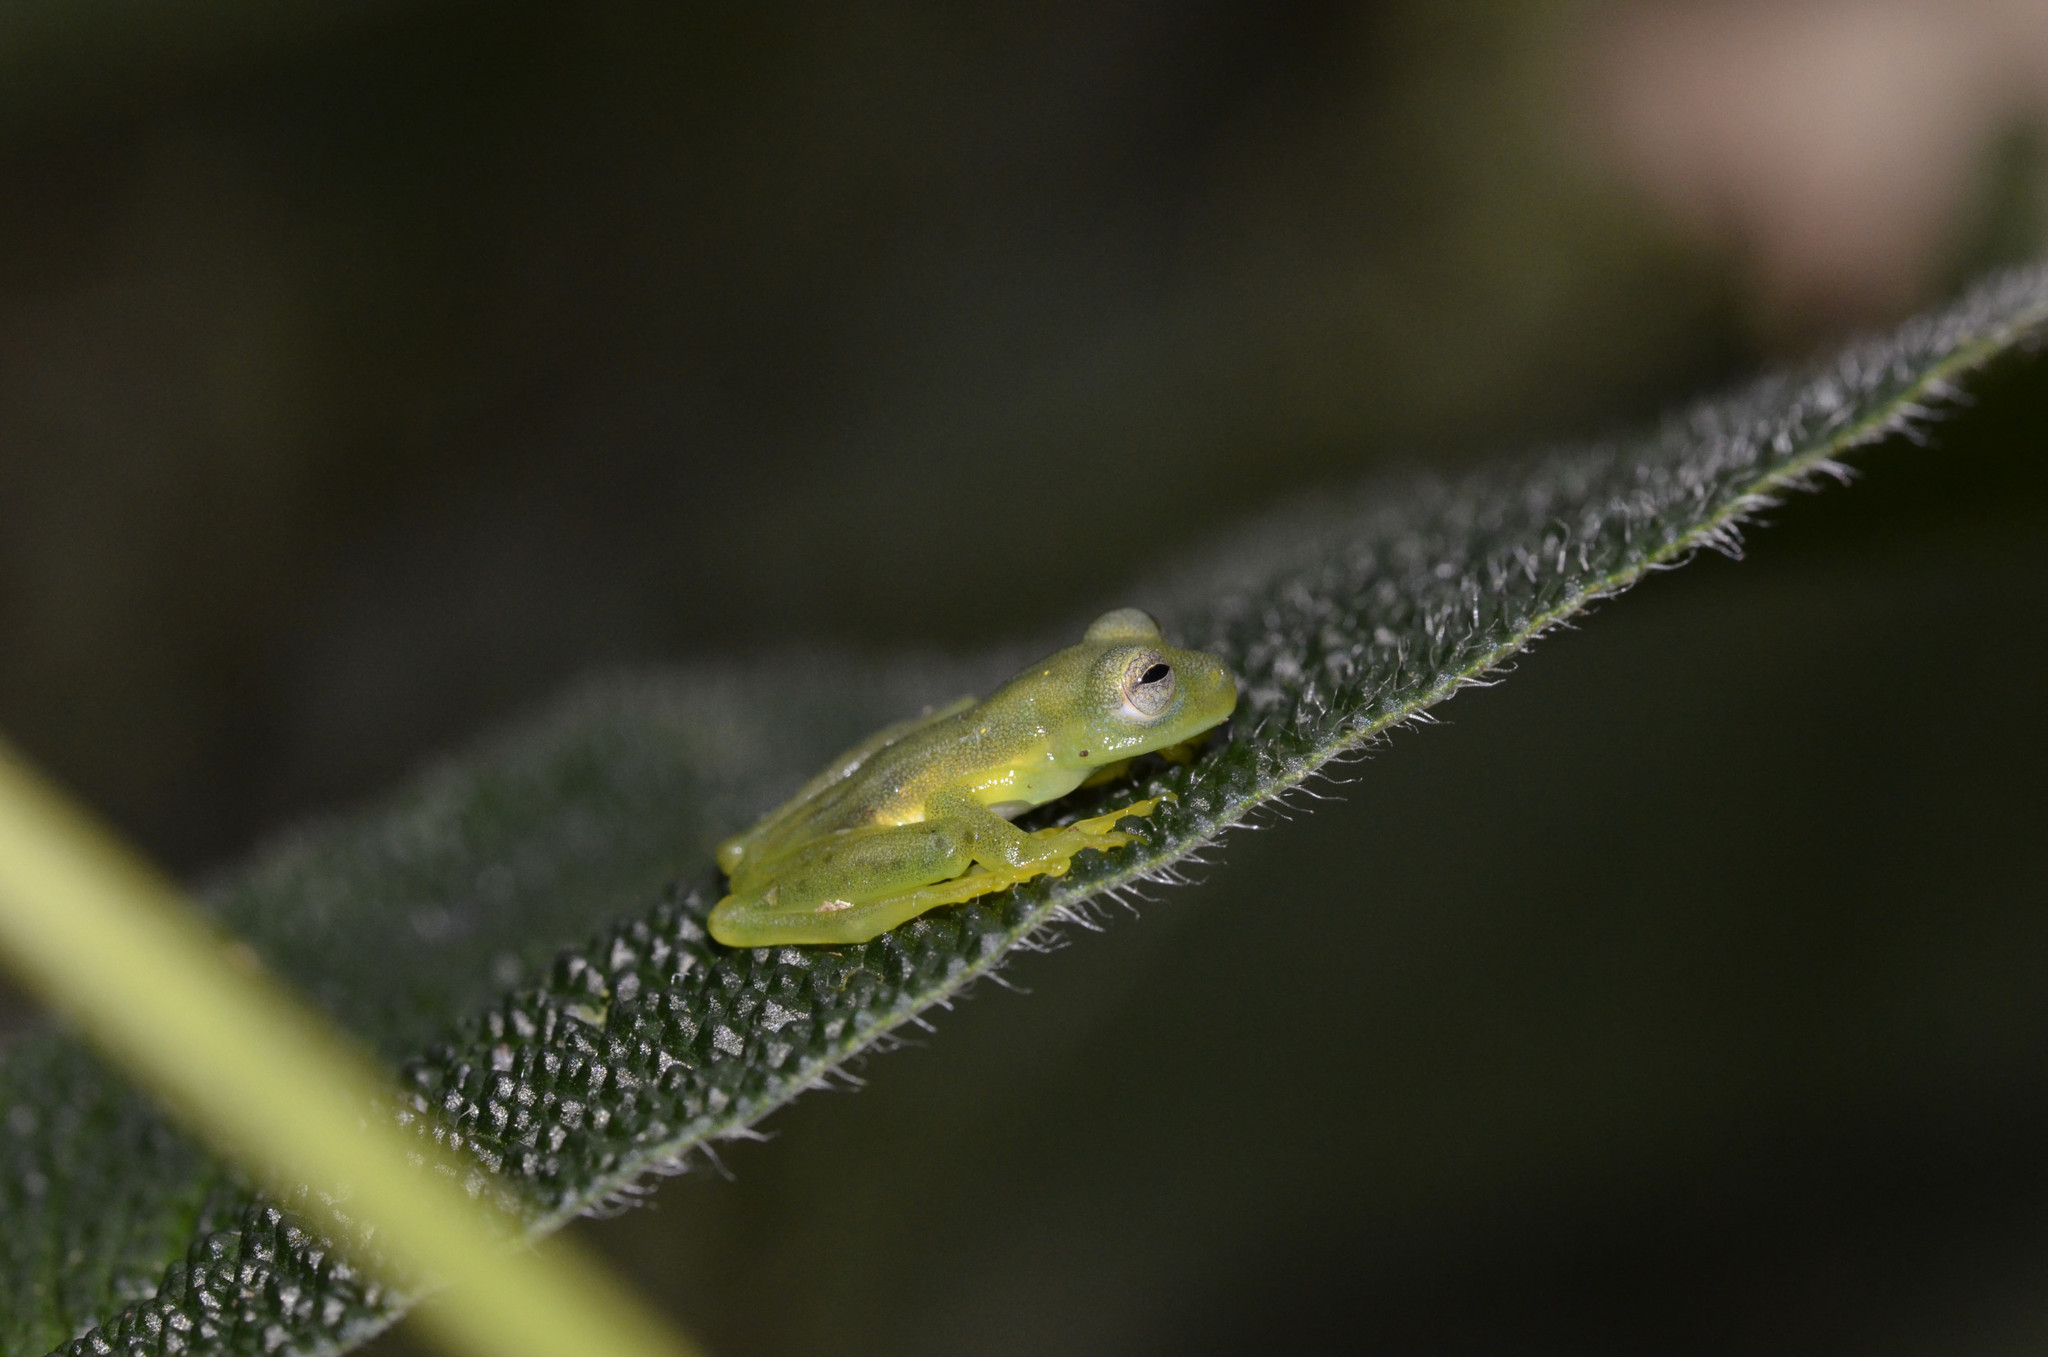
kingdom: Animalia
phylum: Chordata
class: Amphibia
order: Anura
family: Centrolenidae
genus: Espadarana
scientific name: Espadarana prosoblepon
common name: Rana de cristal variable
